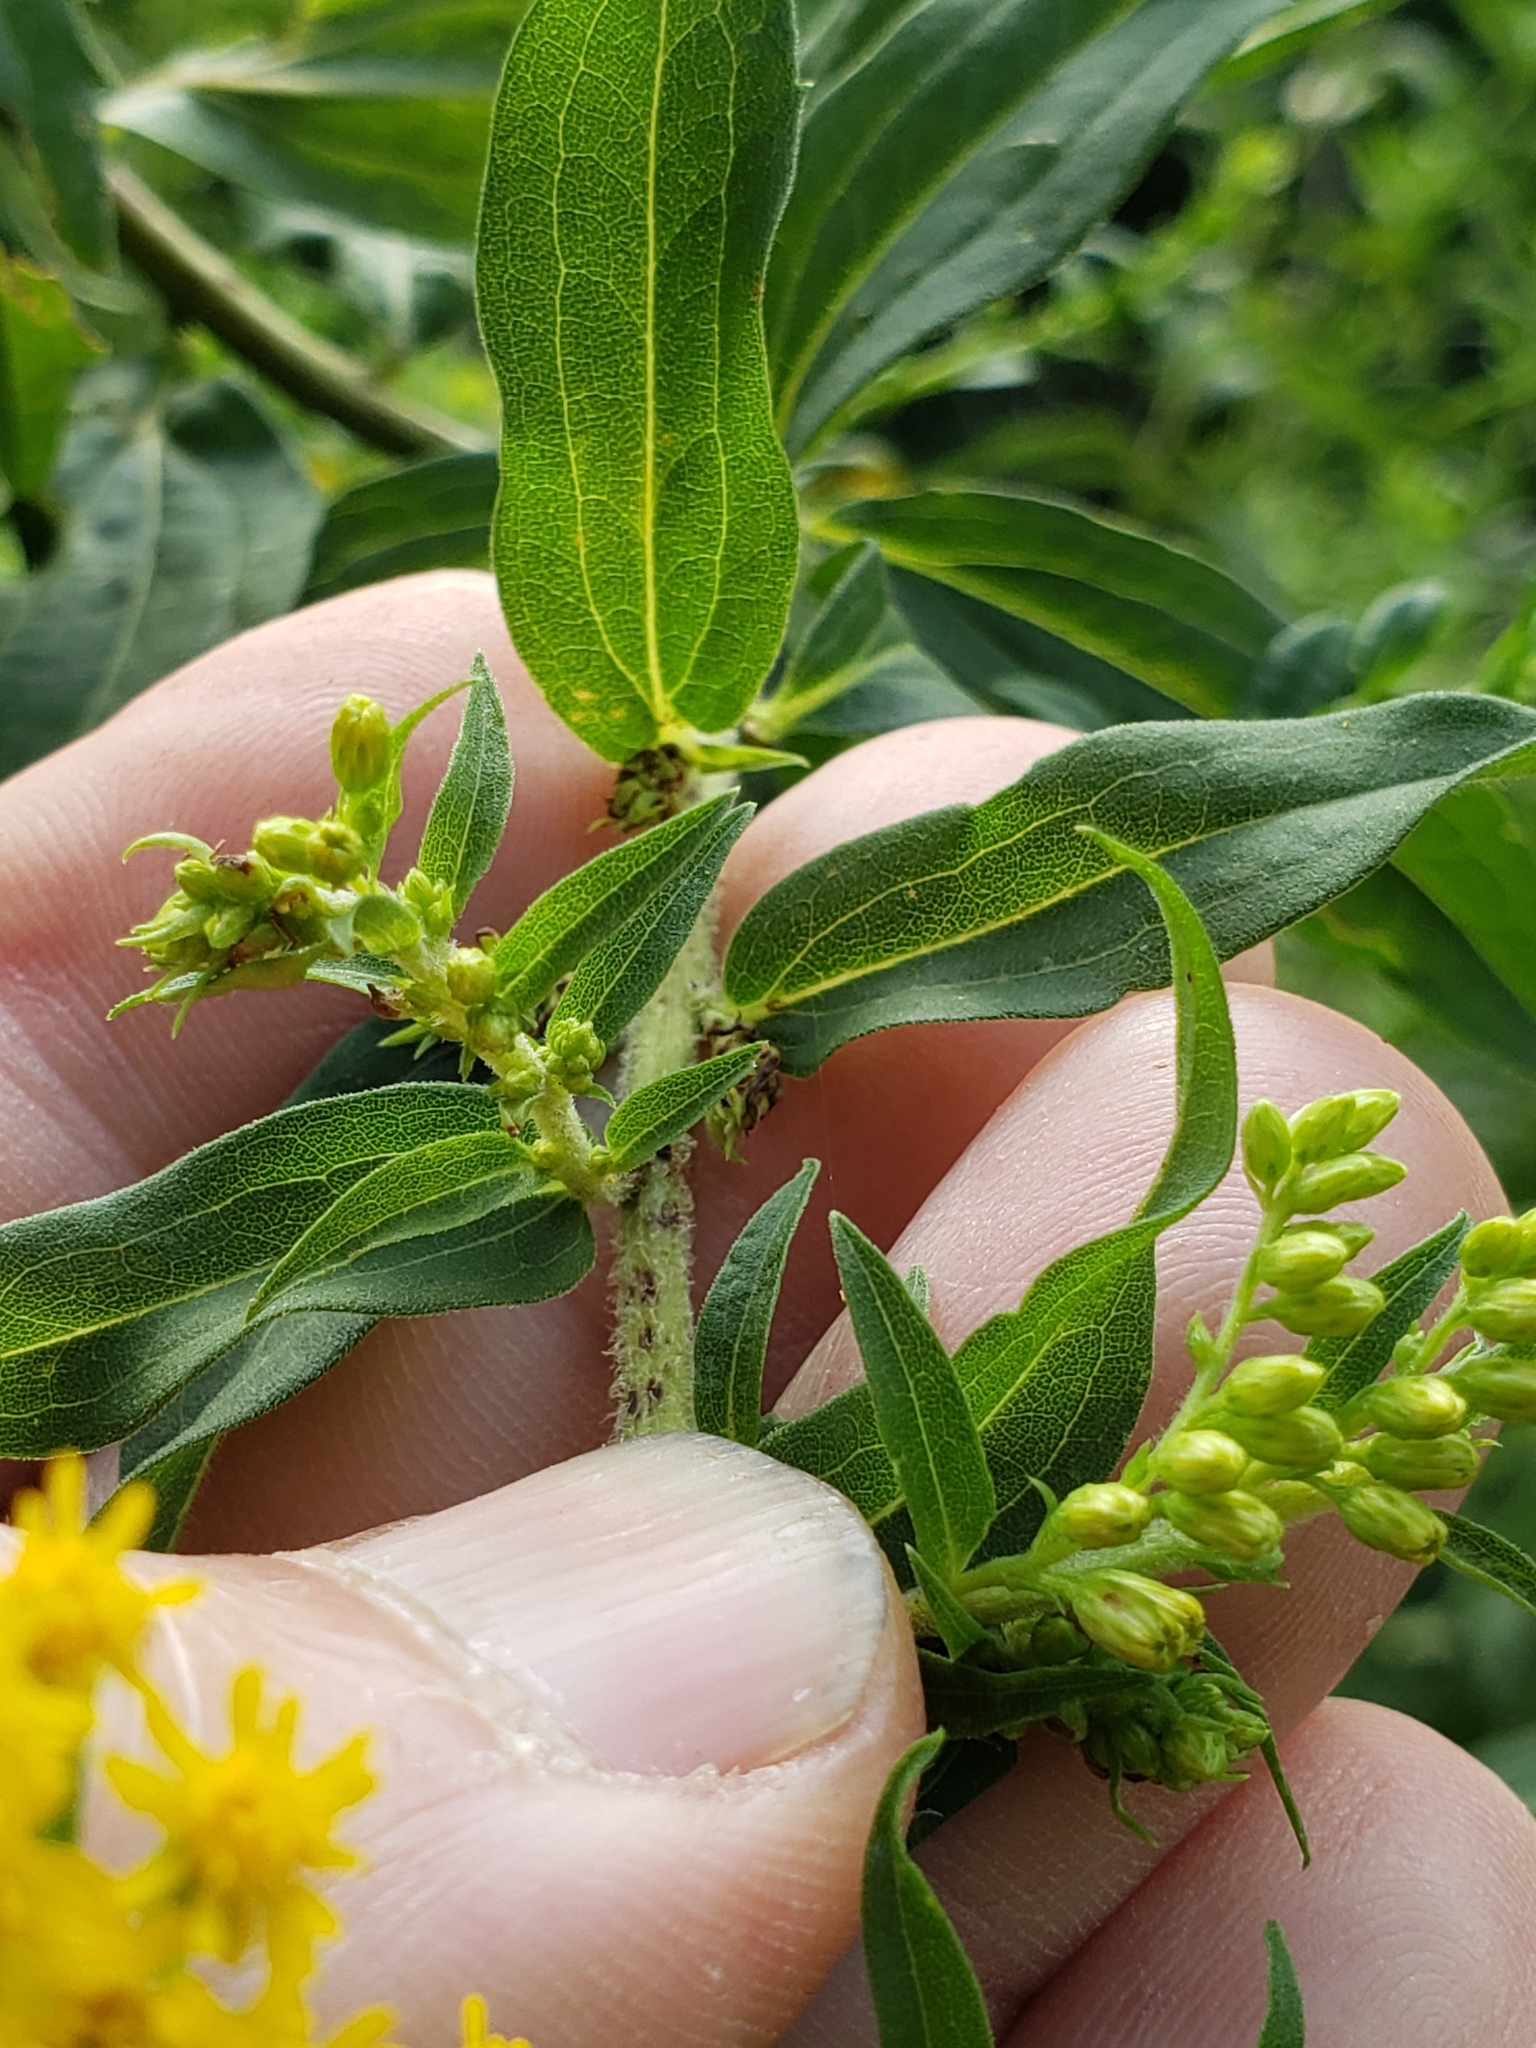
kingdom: Plantae
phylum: Tracheophyta
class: Magnoliopsida
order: Asterales
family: Asteraceae
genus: Solidago
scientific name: Solidago juncea
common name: Early goldenrod
